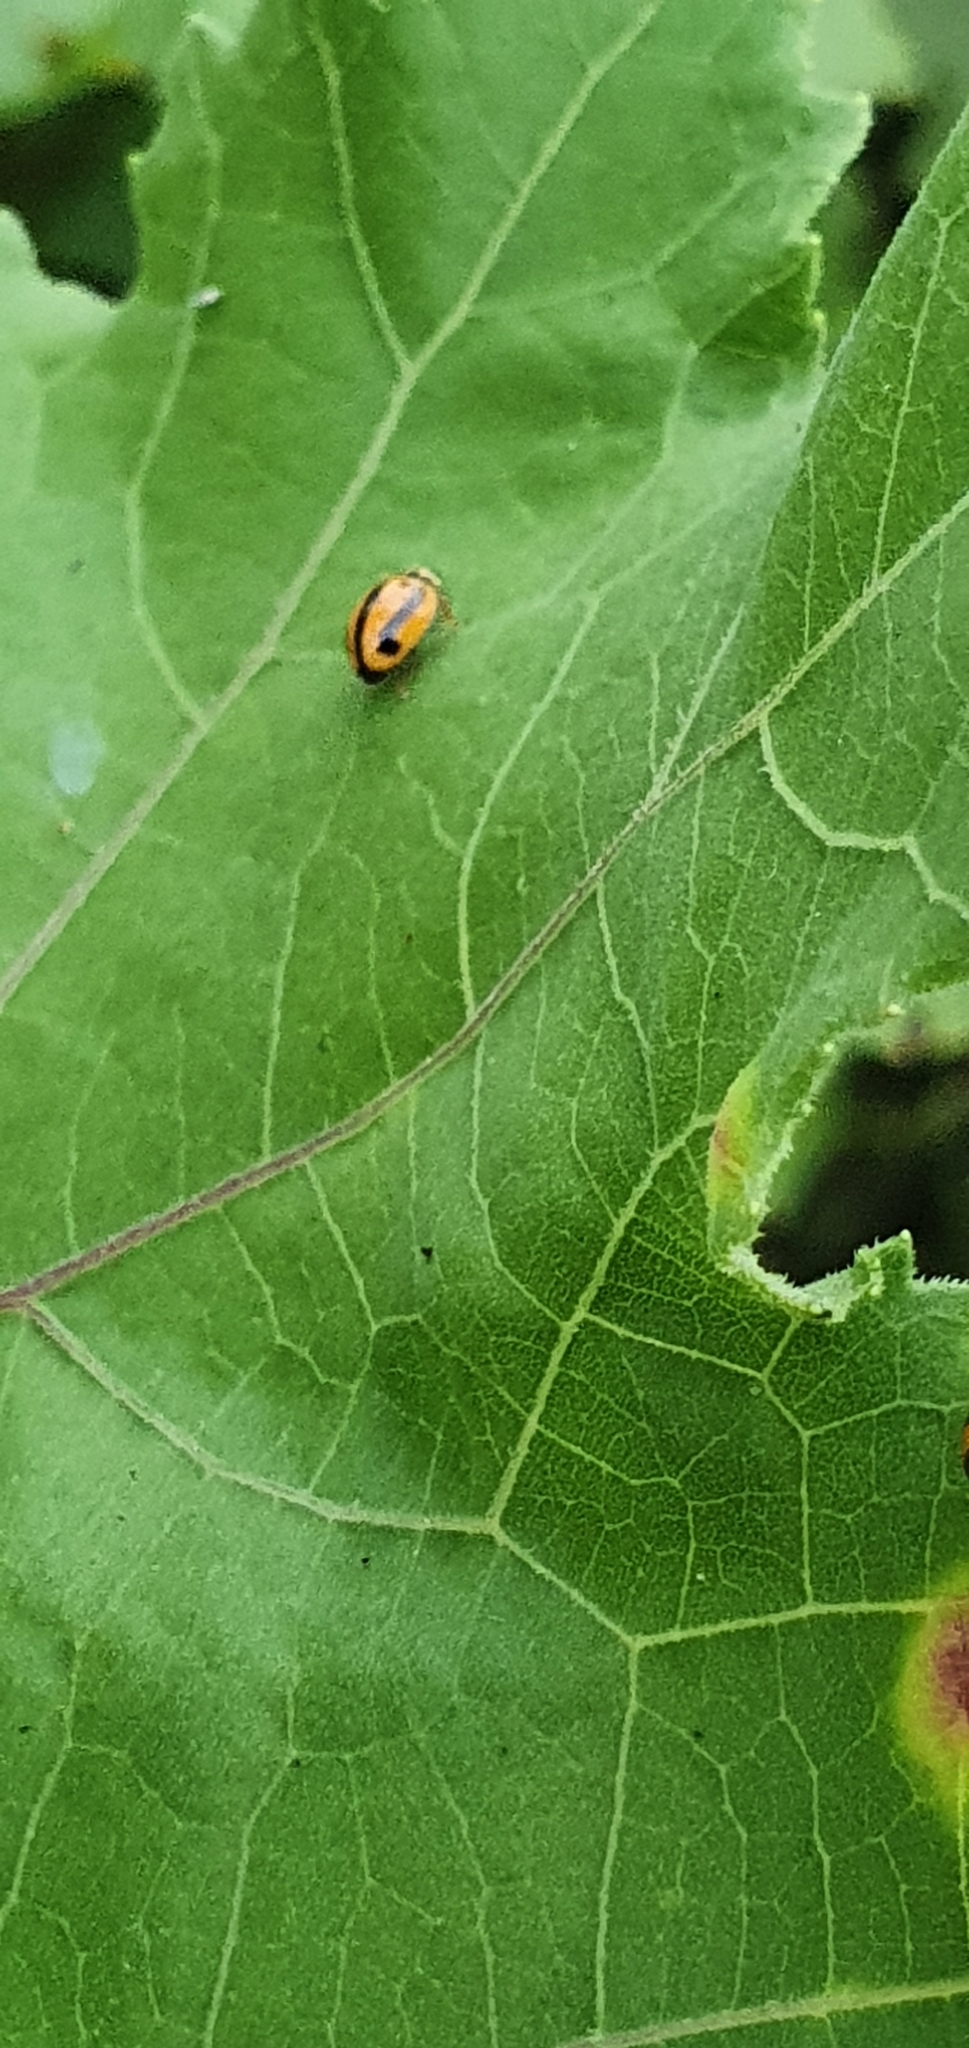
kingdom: Animalia
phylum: Arthropoda
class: Insecta
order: Coleoptera
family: Coccinellidae
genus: Micraspis
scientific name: Micraspis frenata
